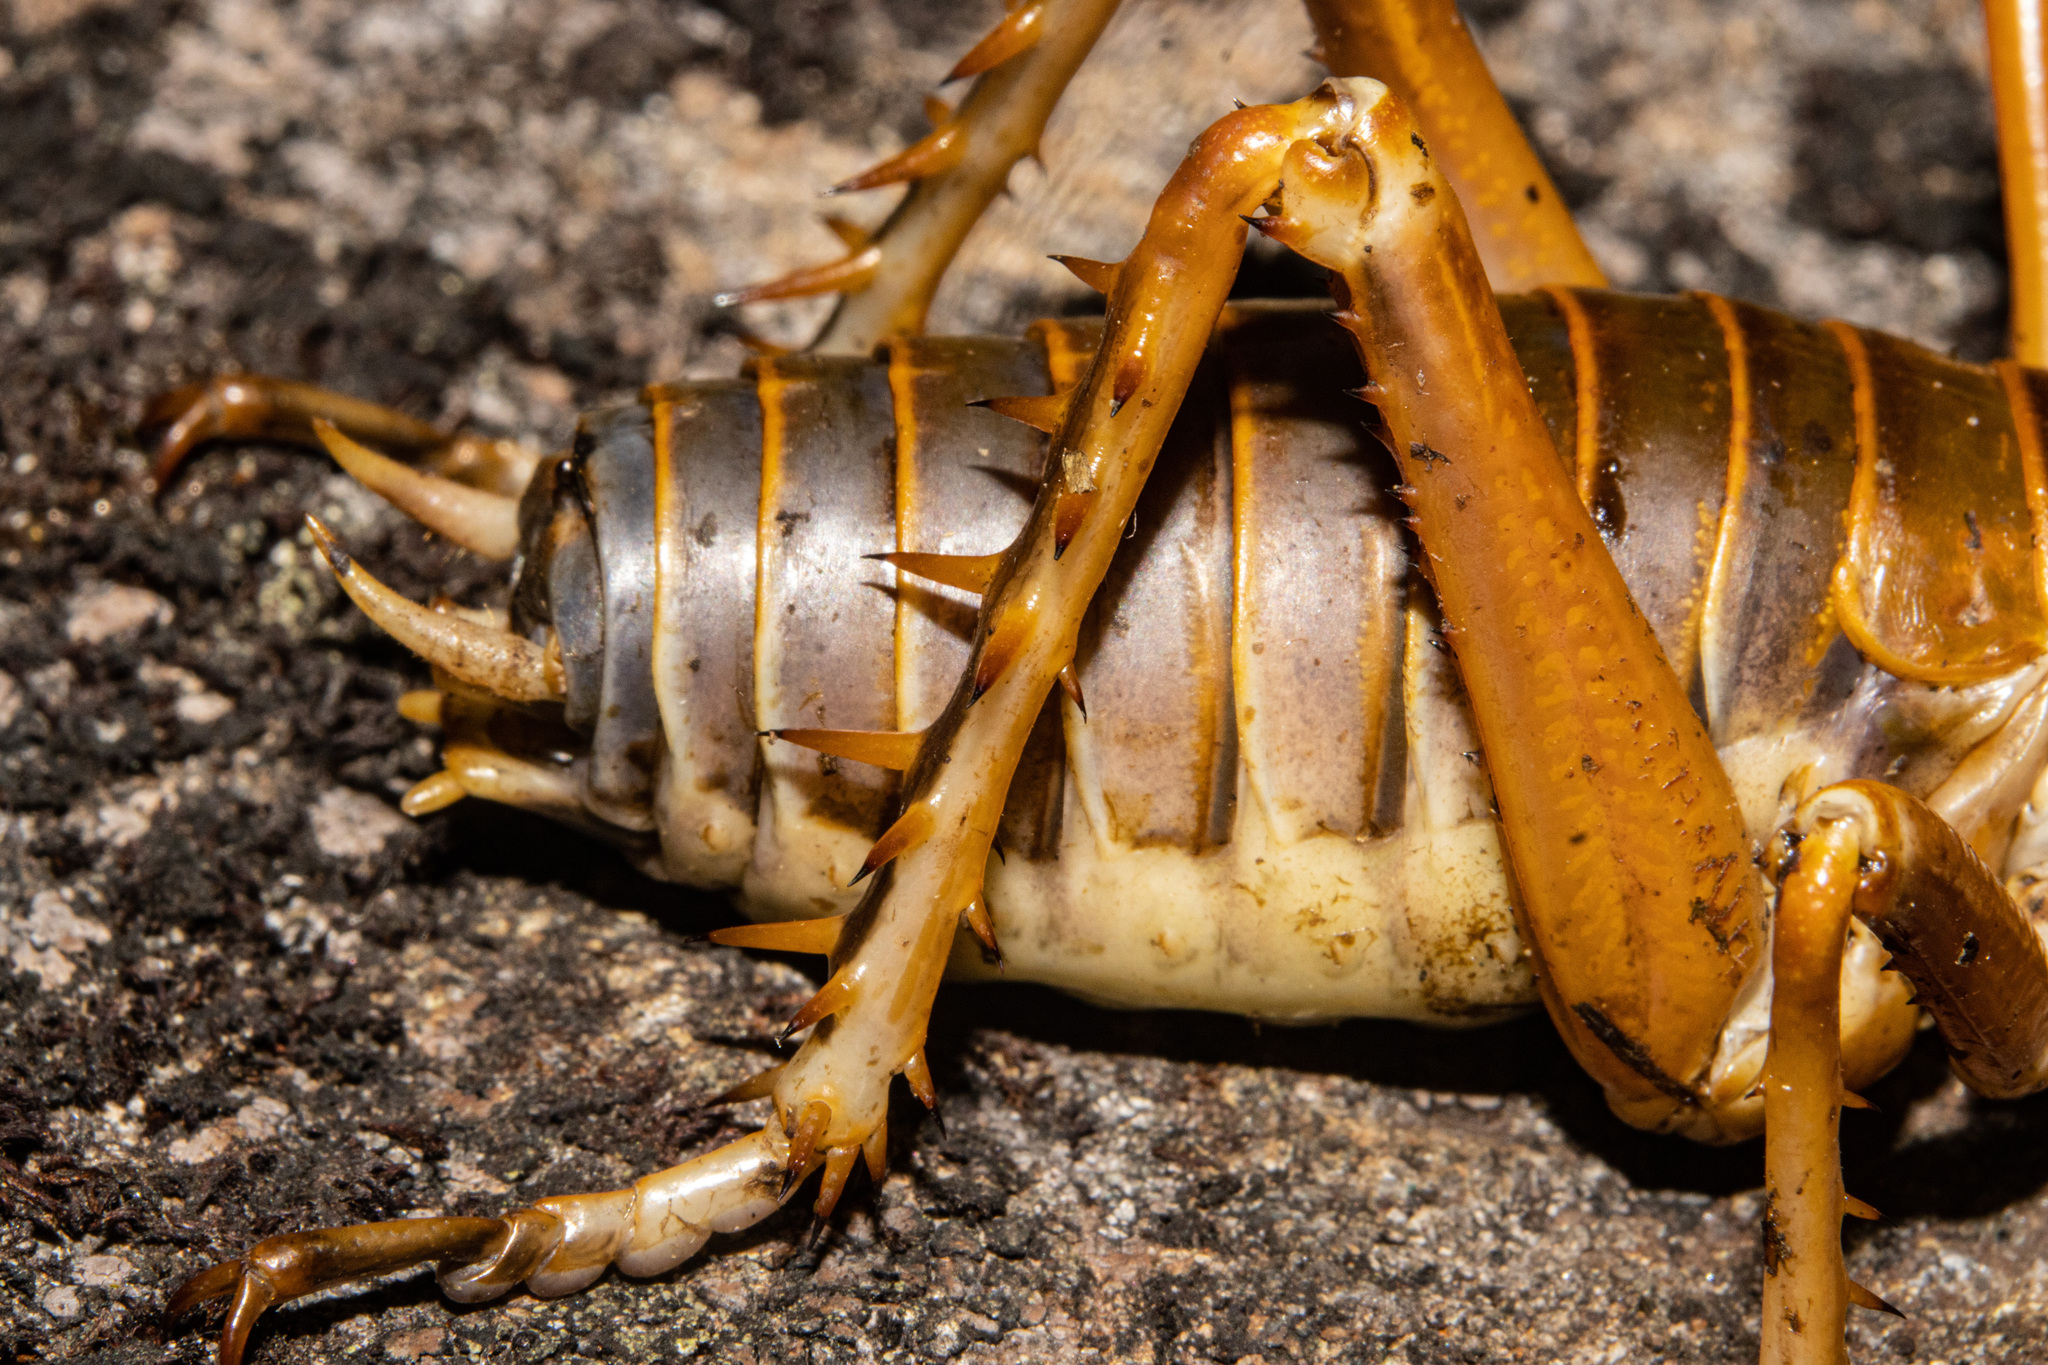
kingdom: Animalia
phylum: Arthropoda
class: Insecta
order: Orthoptera
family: Anostostomatidae
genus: Deinacrida
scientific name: Deinacrida pluvialis
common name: Mount cook giant weta
